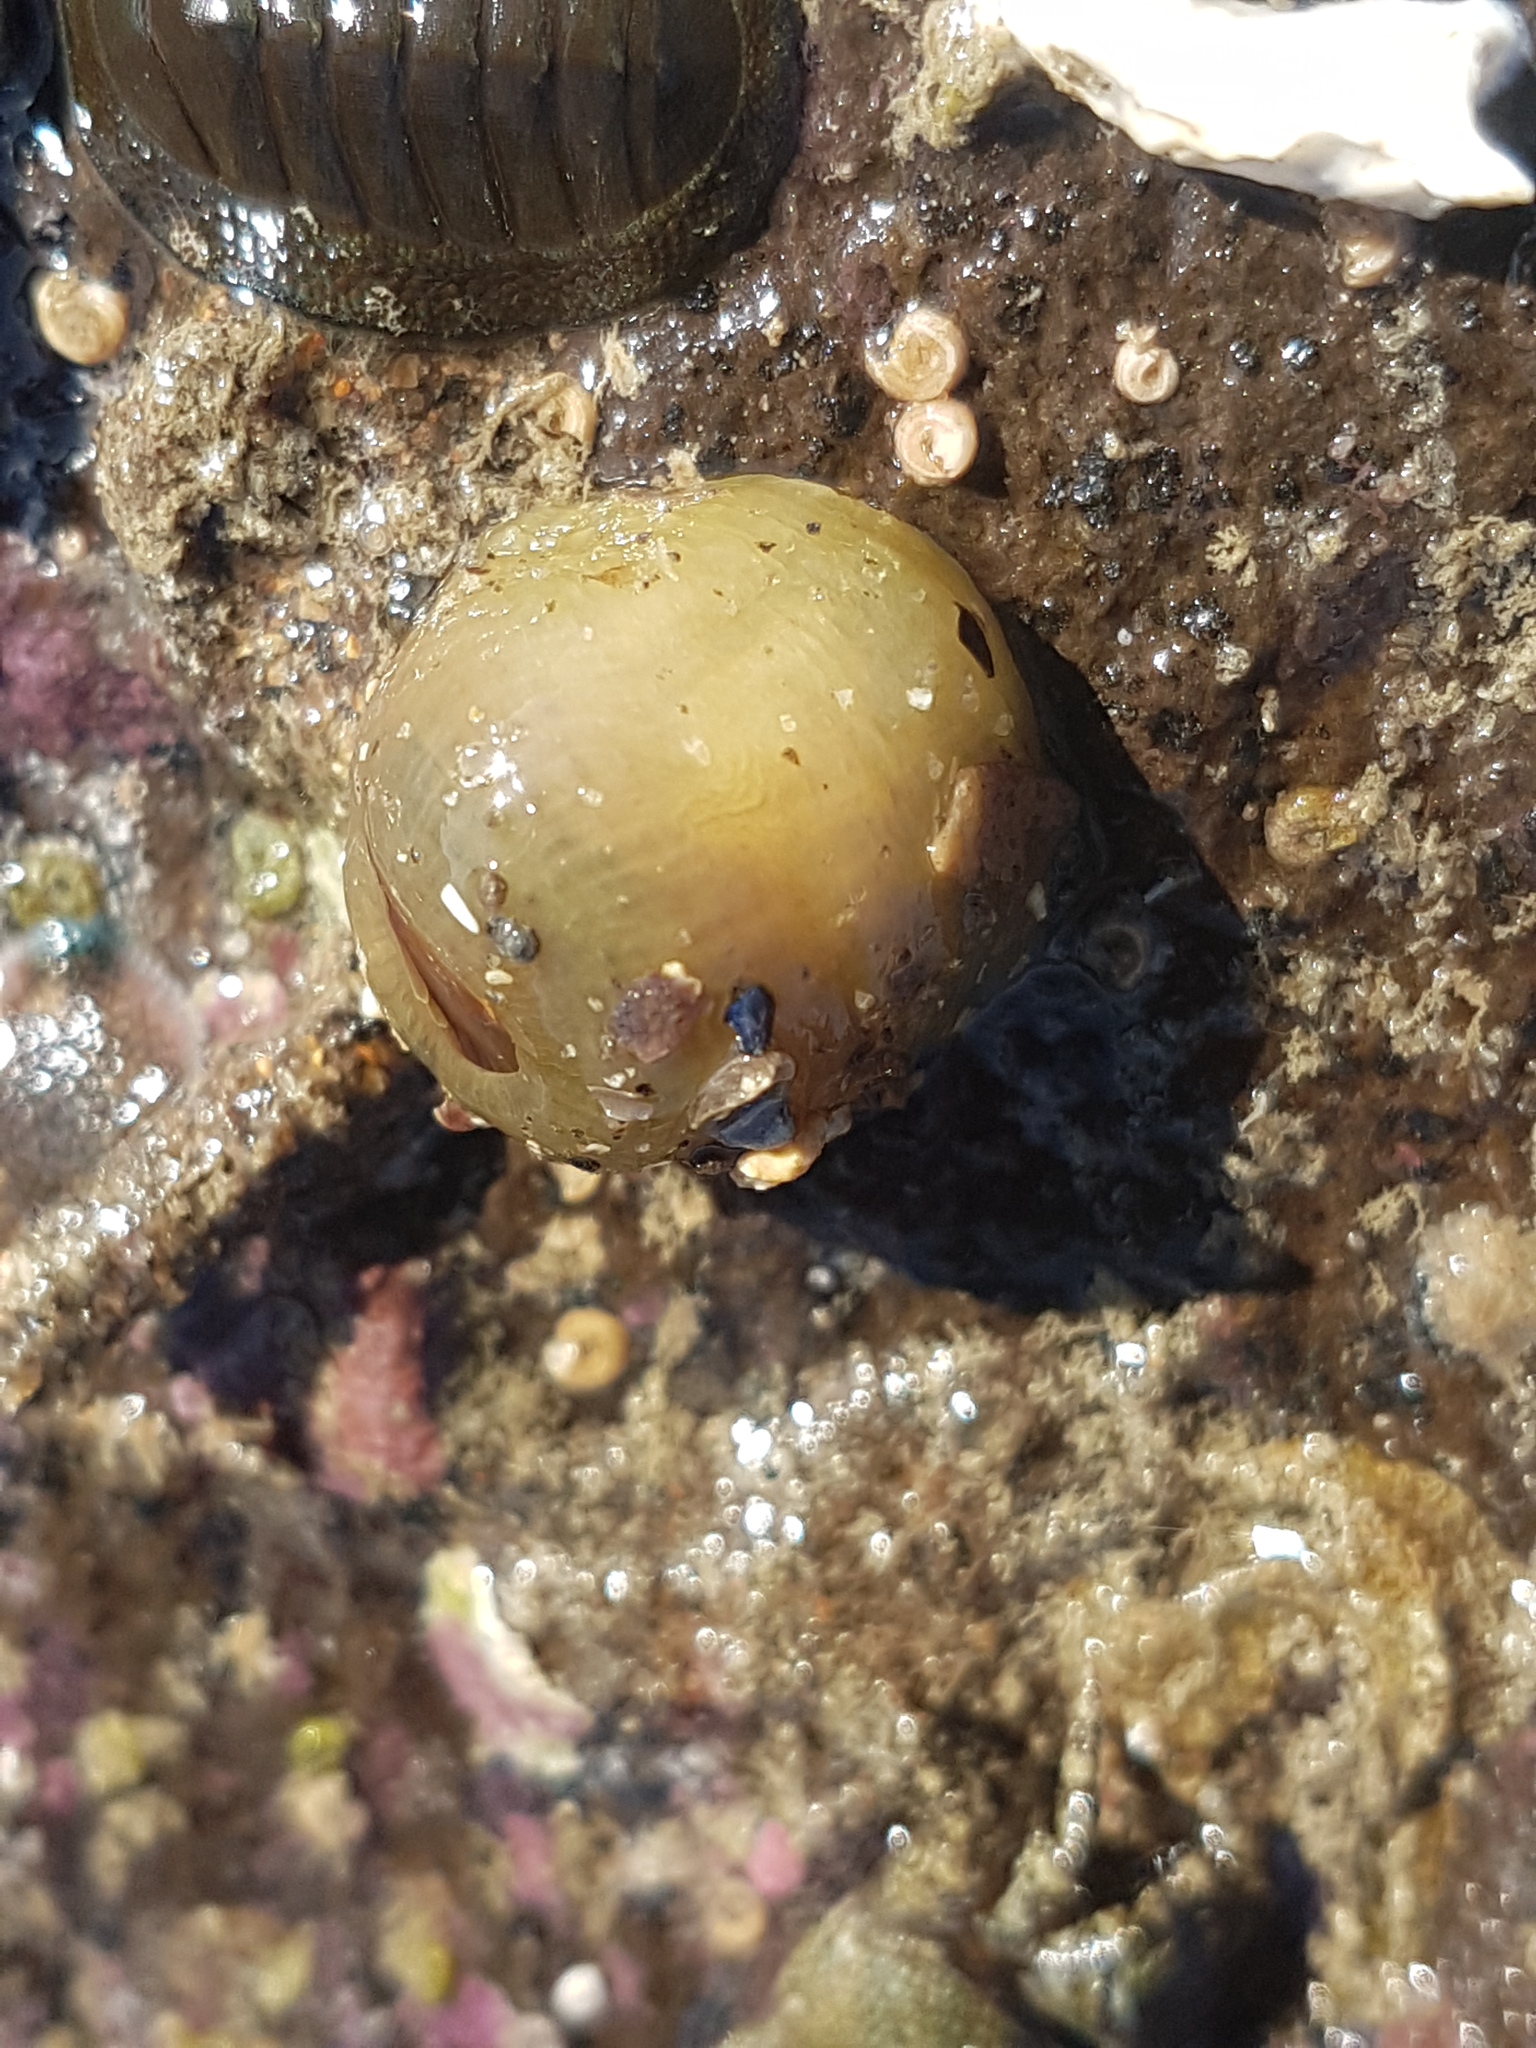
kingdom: Animalia
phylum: Cnidaria
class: Anthozoa
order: Actiniaria
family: Actiniidae
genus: Isactinia
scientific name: Isactinia olivacea
